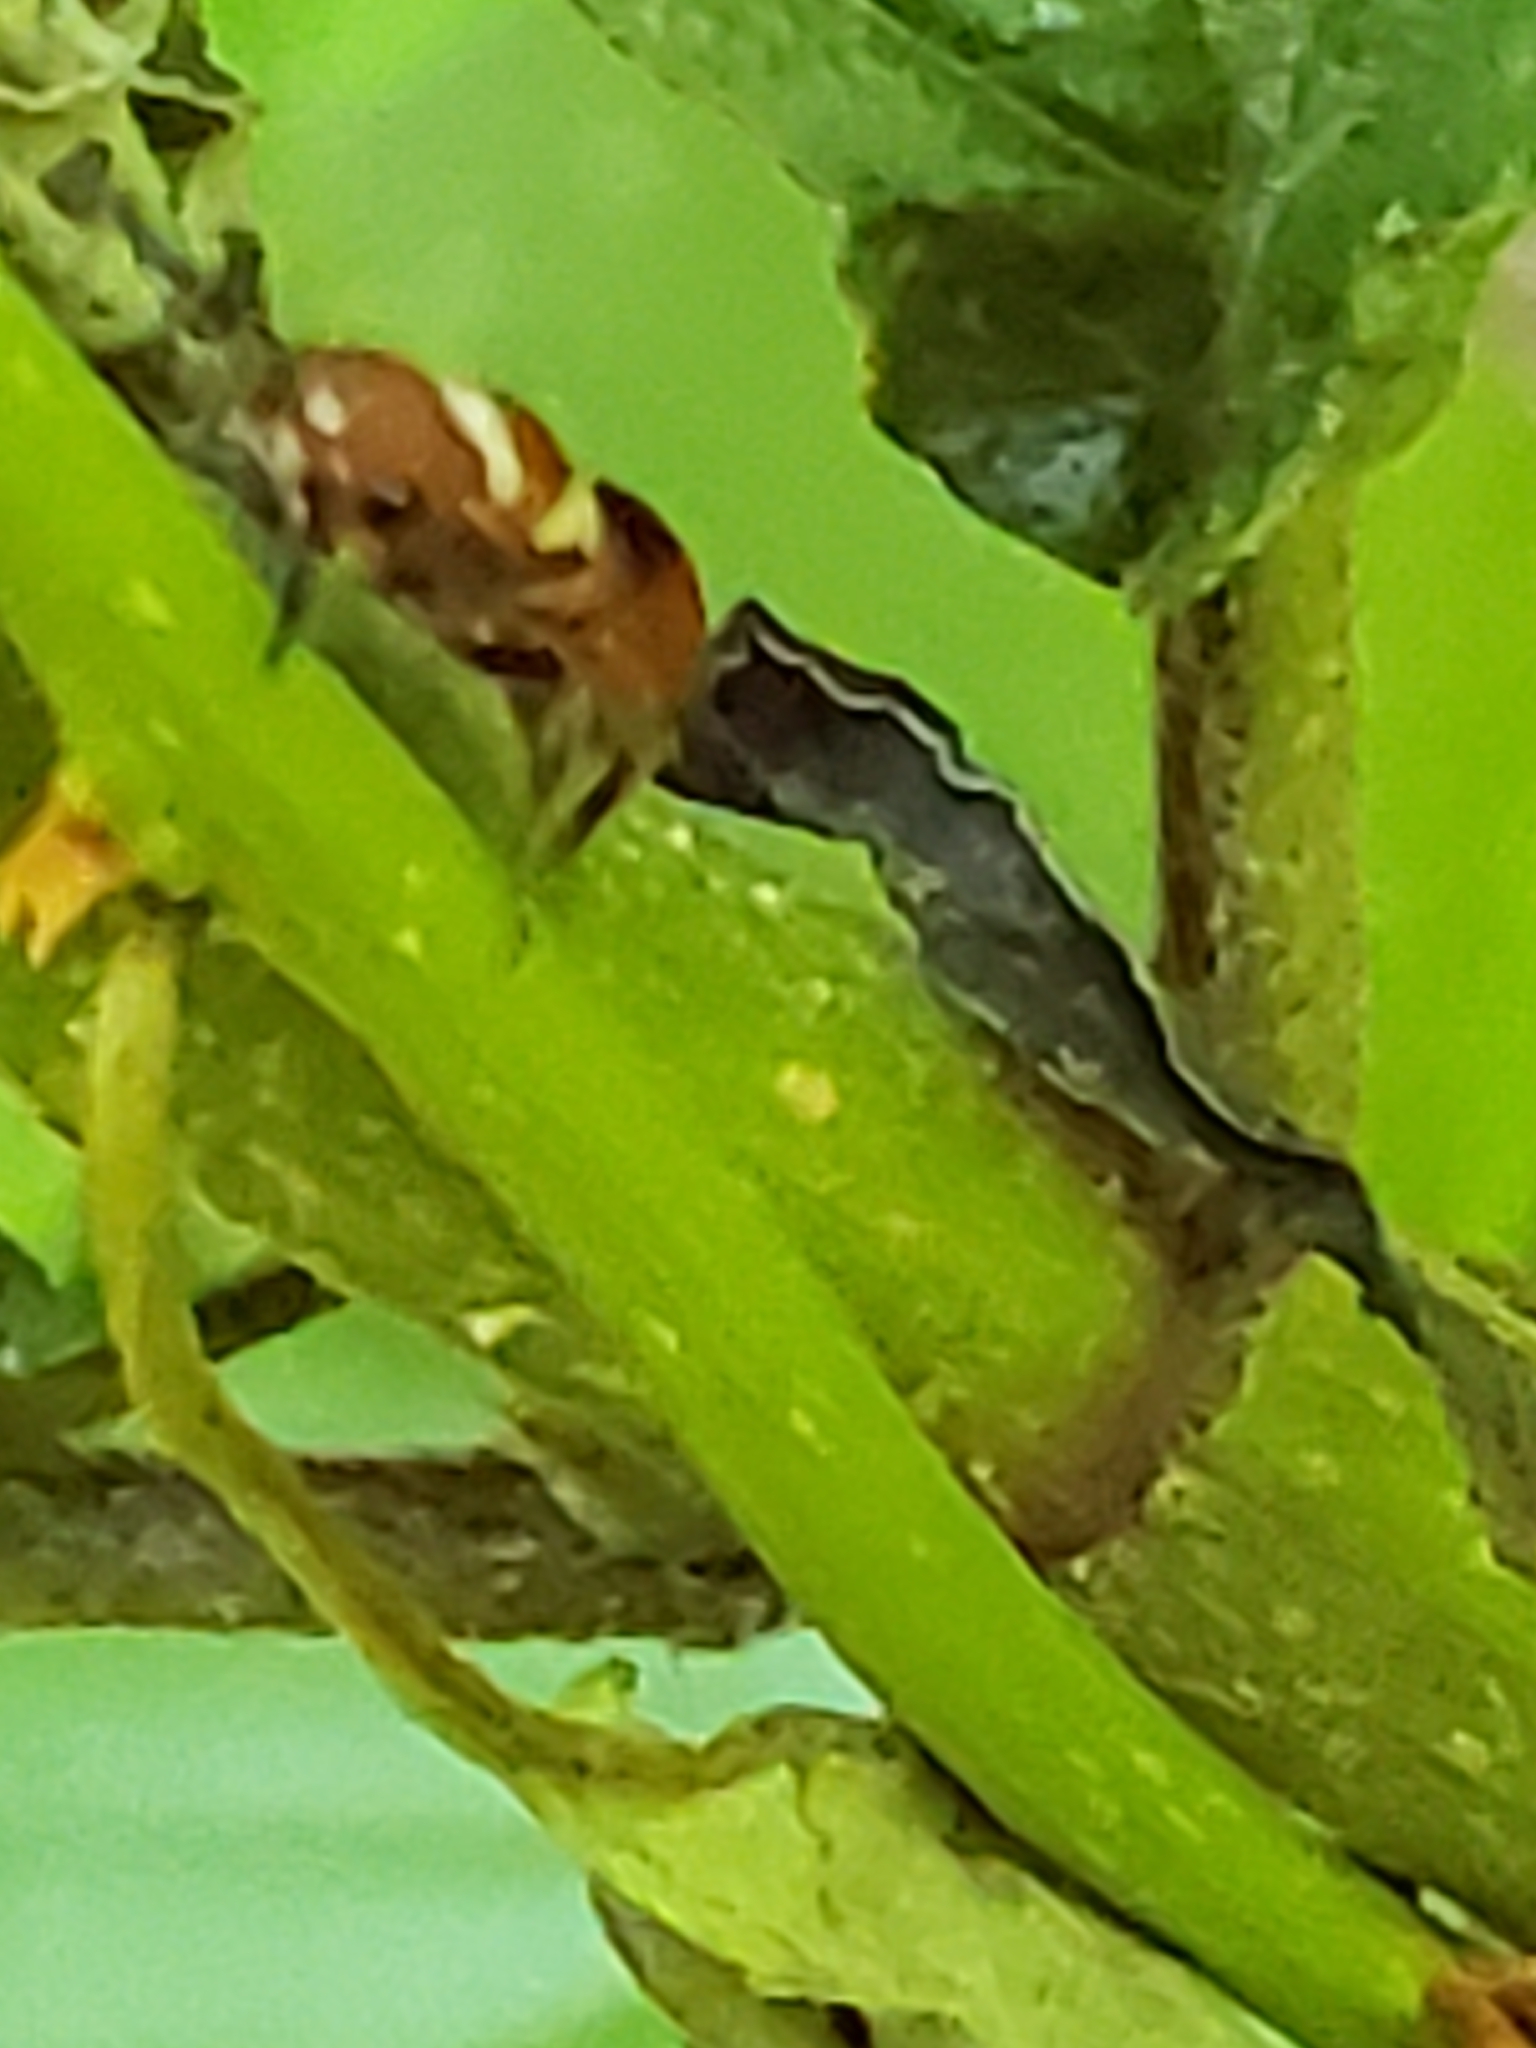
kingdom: Animalia
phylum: Arthropoda
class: Insecta
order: Hymenoptera
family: Mutillidae
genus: Pseudomethoca
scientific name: Pseudomethoca
